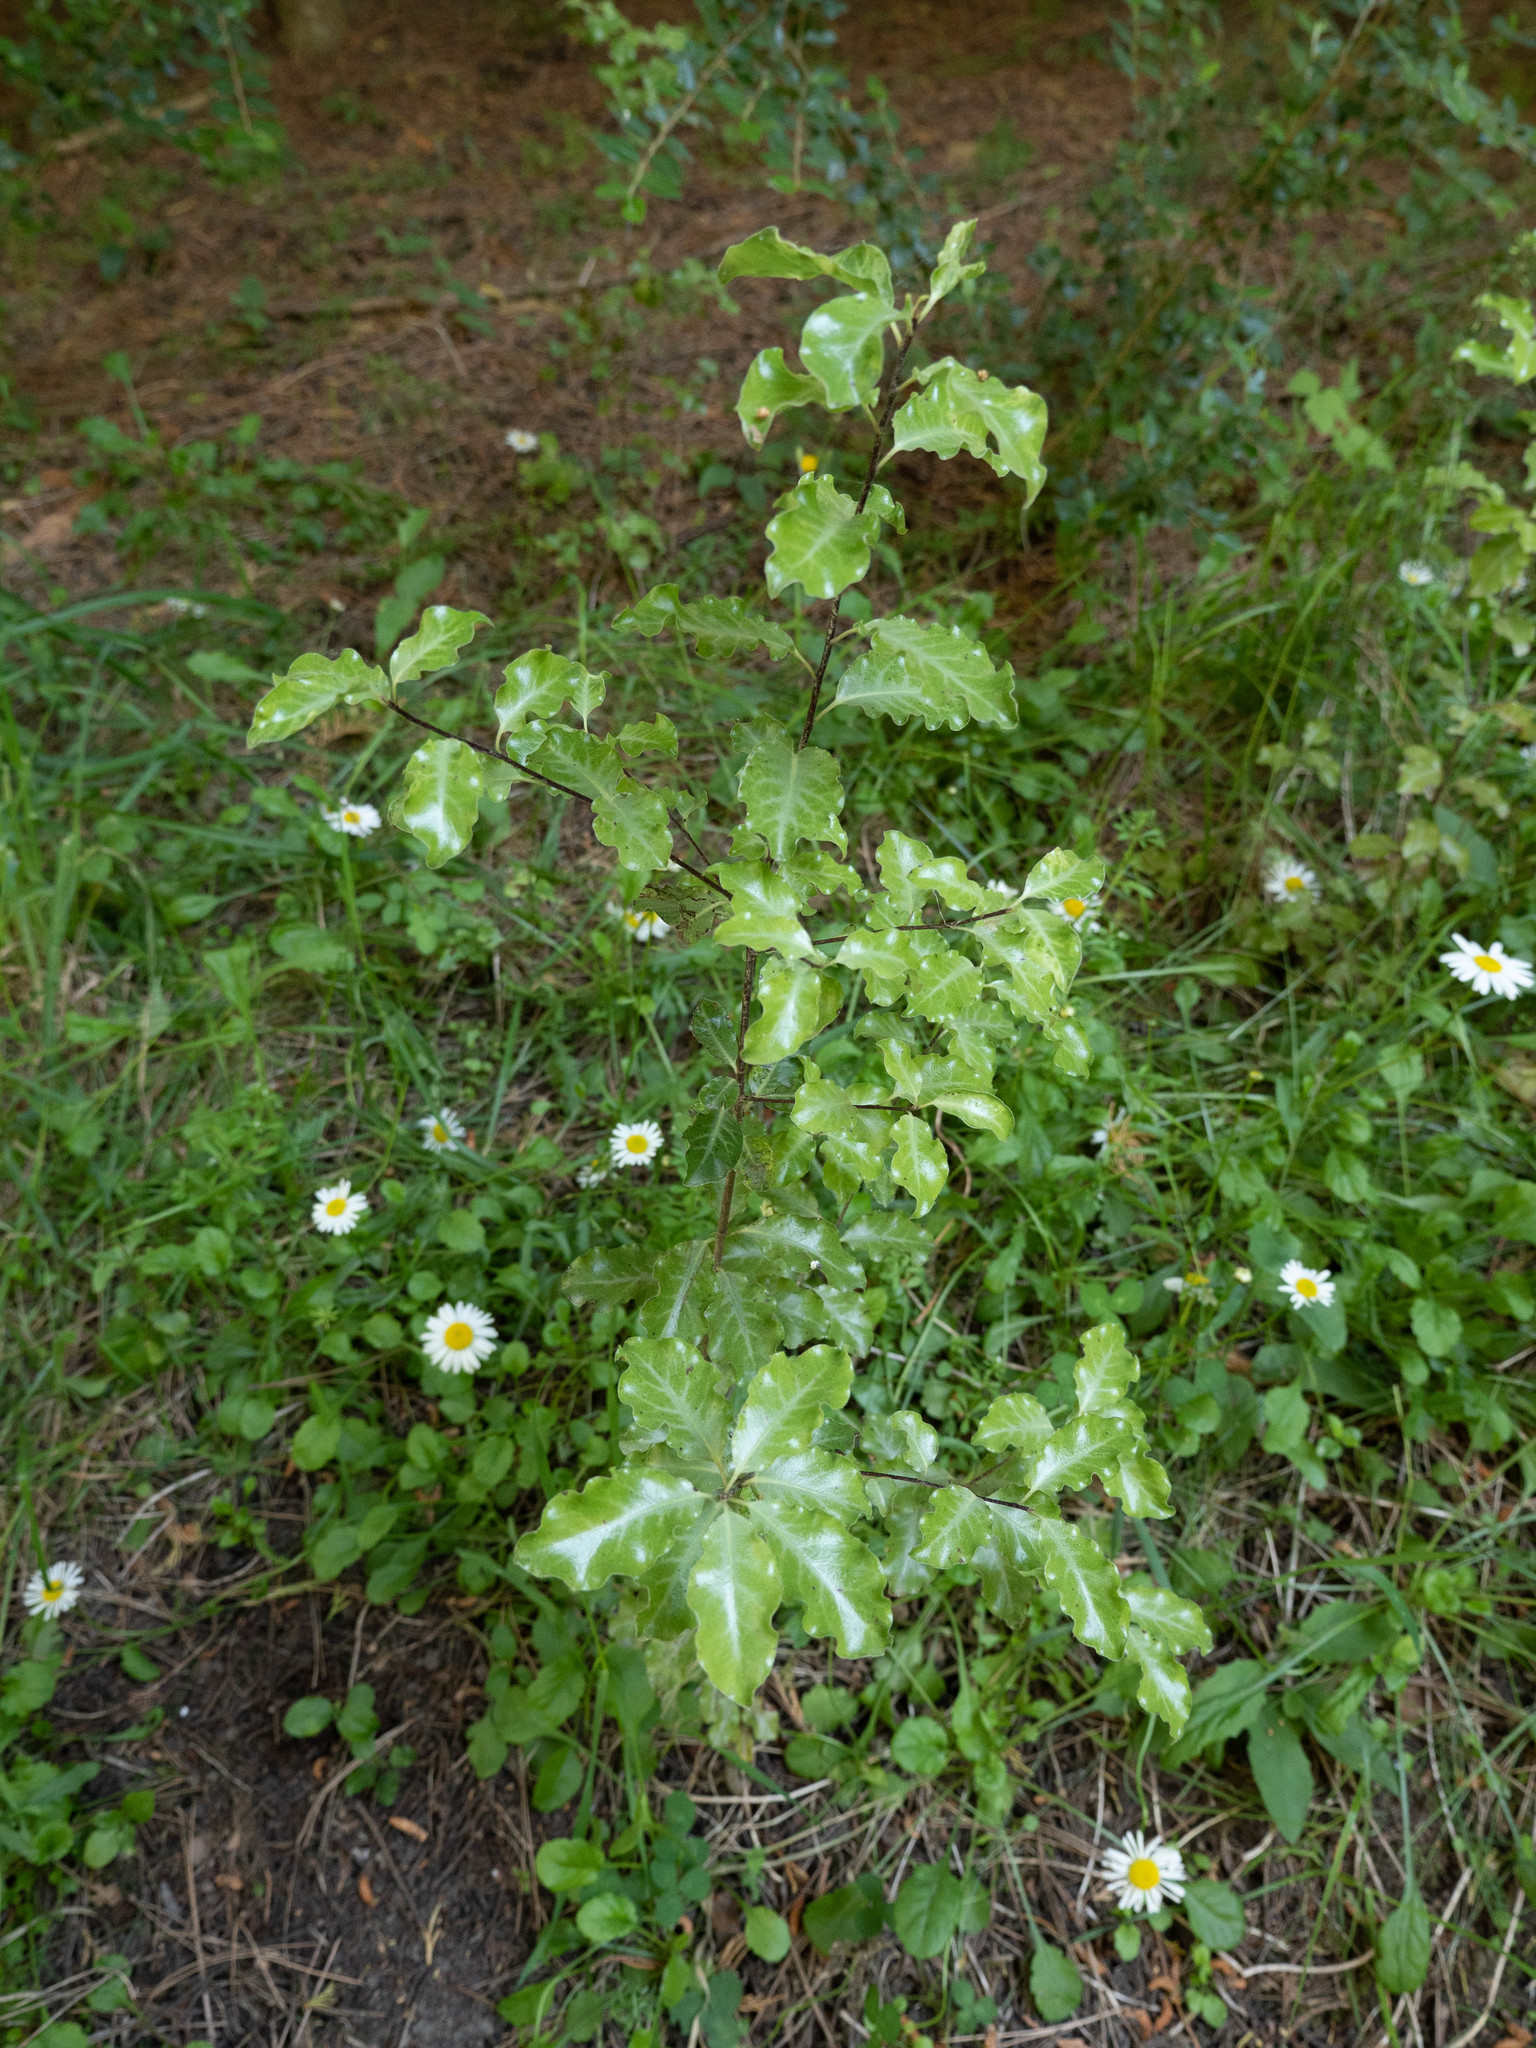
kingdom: Plantae
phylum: Tracheophyta
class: Magnoliopsida
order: Apiales
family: Pittosporaceae
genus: Pittosporum
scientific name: Pittosporum tenuifolium
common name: Kohuhu
